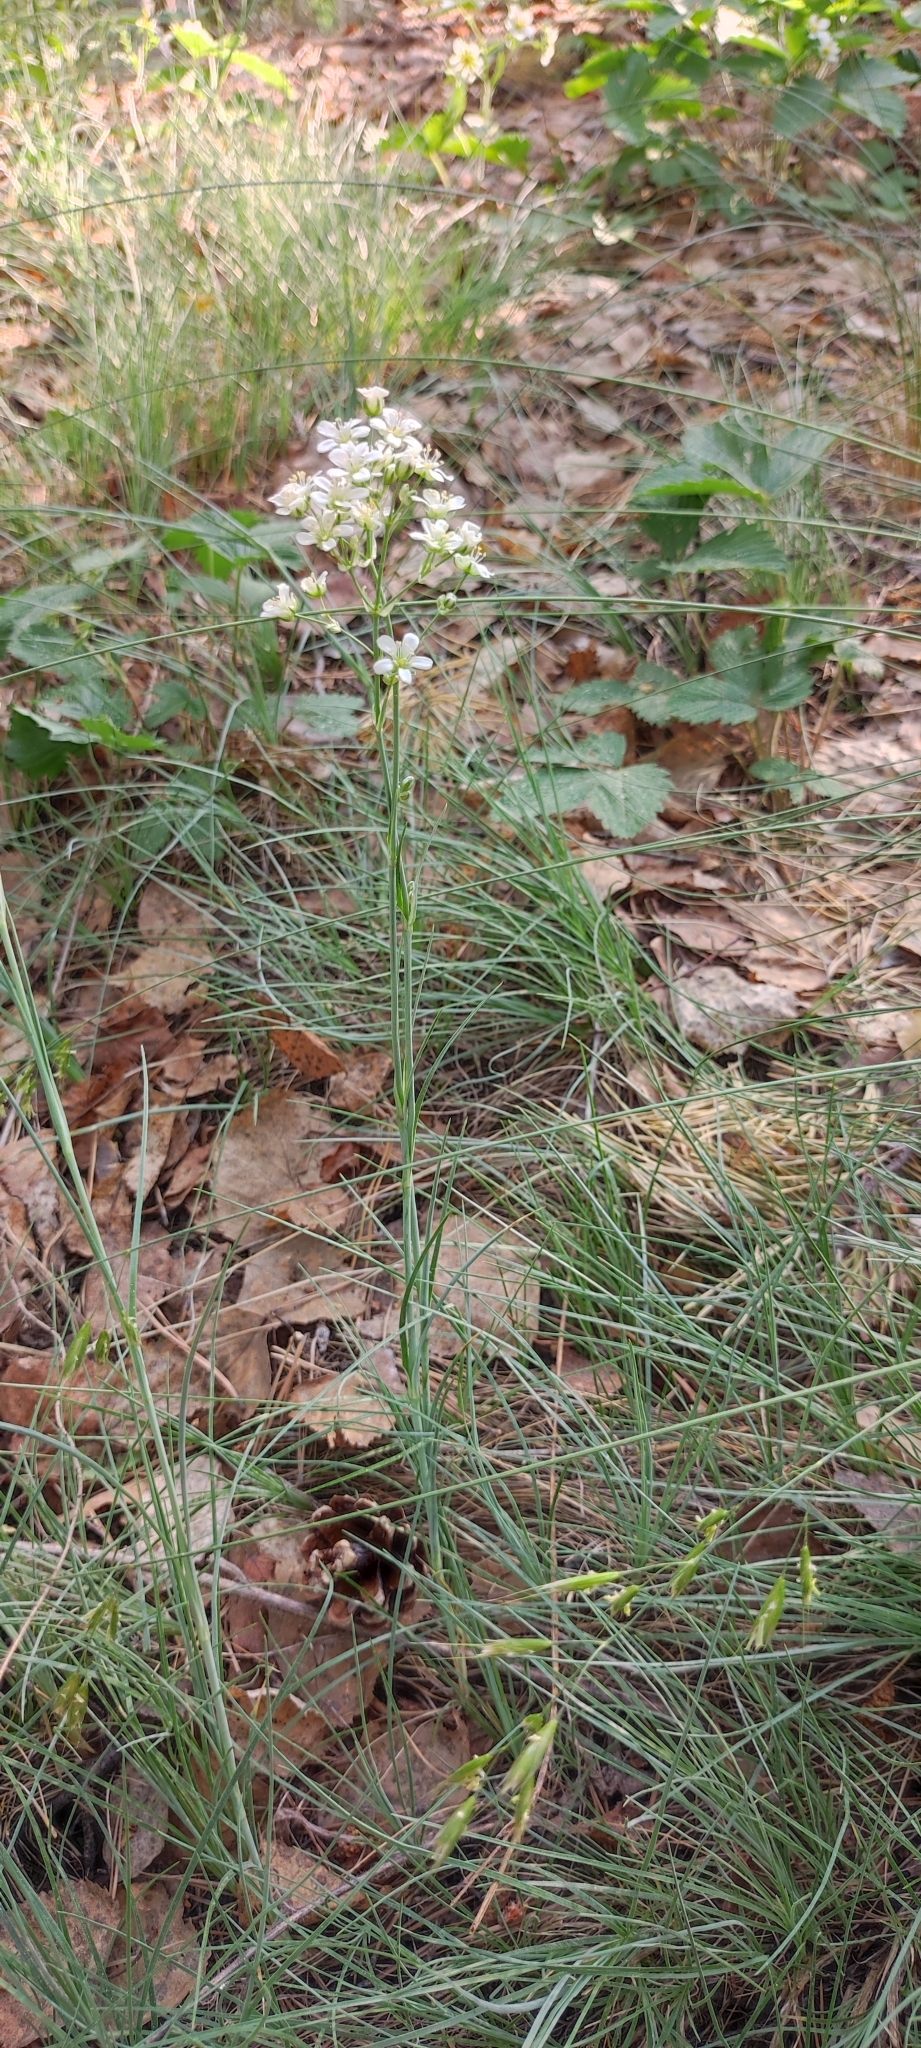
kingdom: Plantae
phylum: Tracheophyta
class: Magnoliopsida
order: Caryophyllales
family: Caryophyllaceae
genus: Eremogone
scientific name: Eremogone saxatilis
